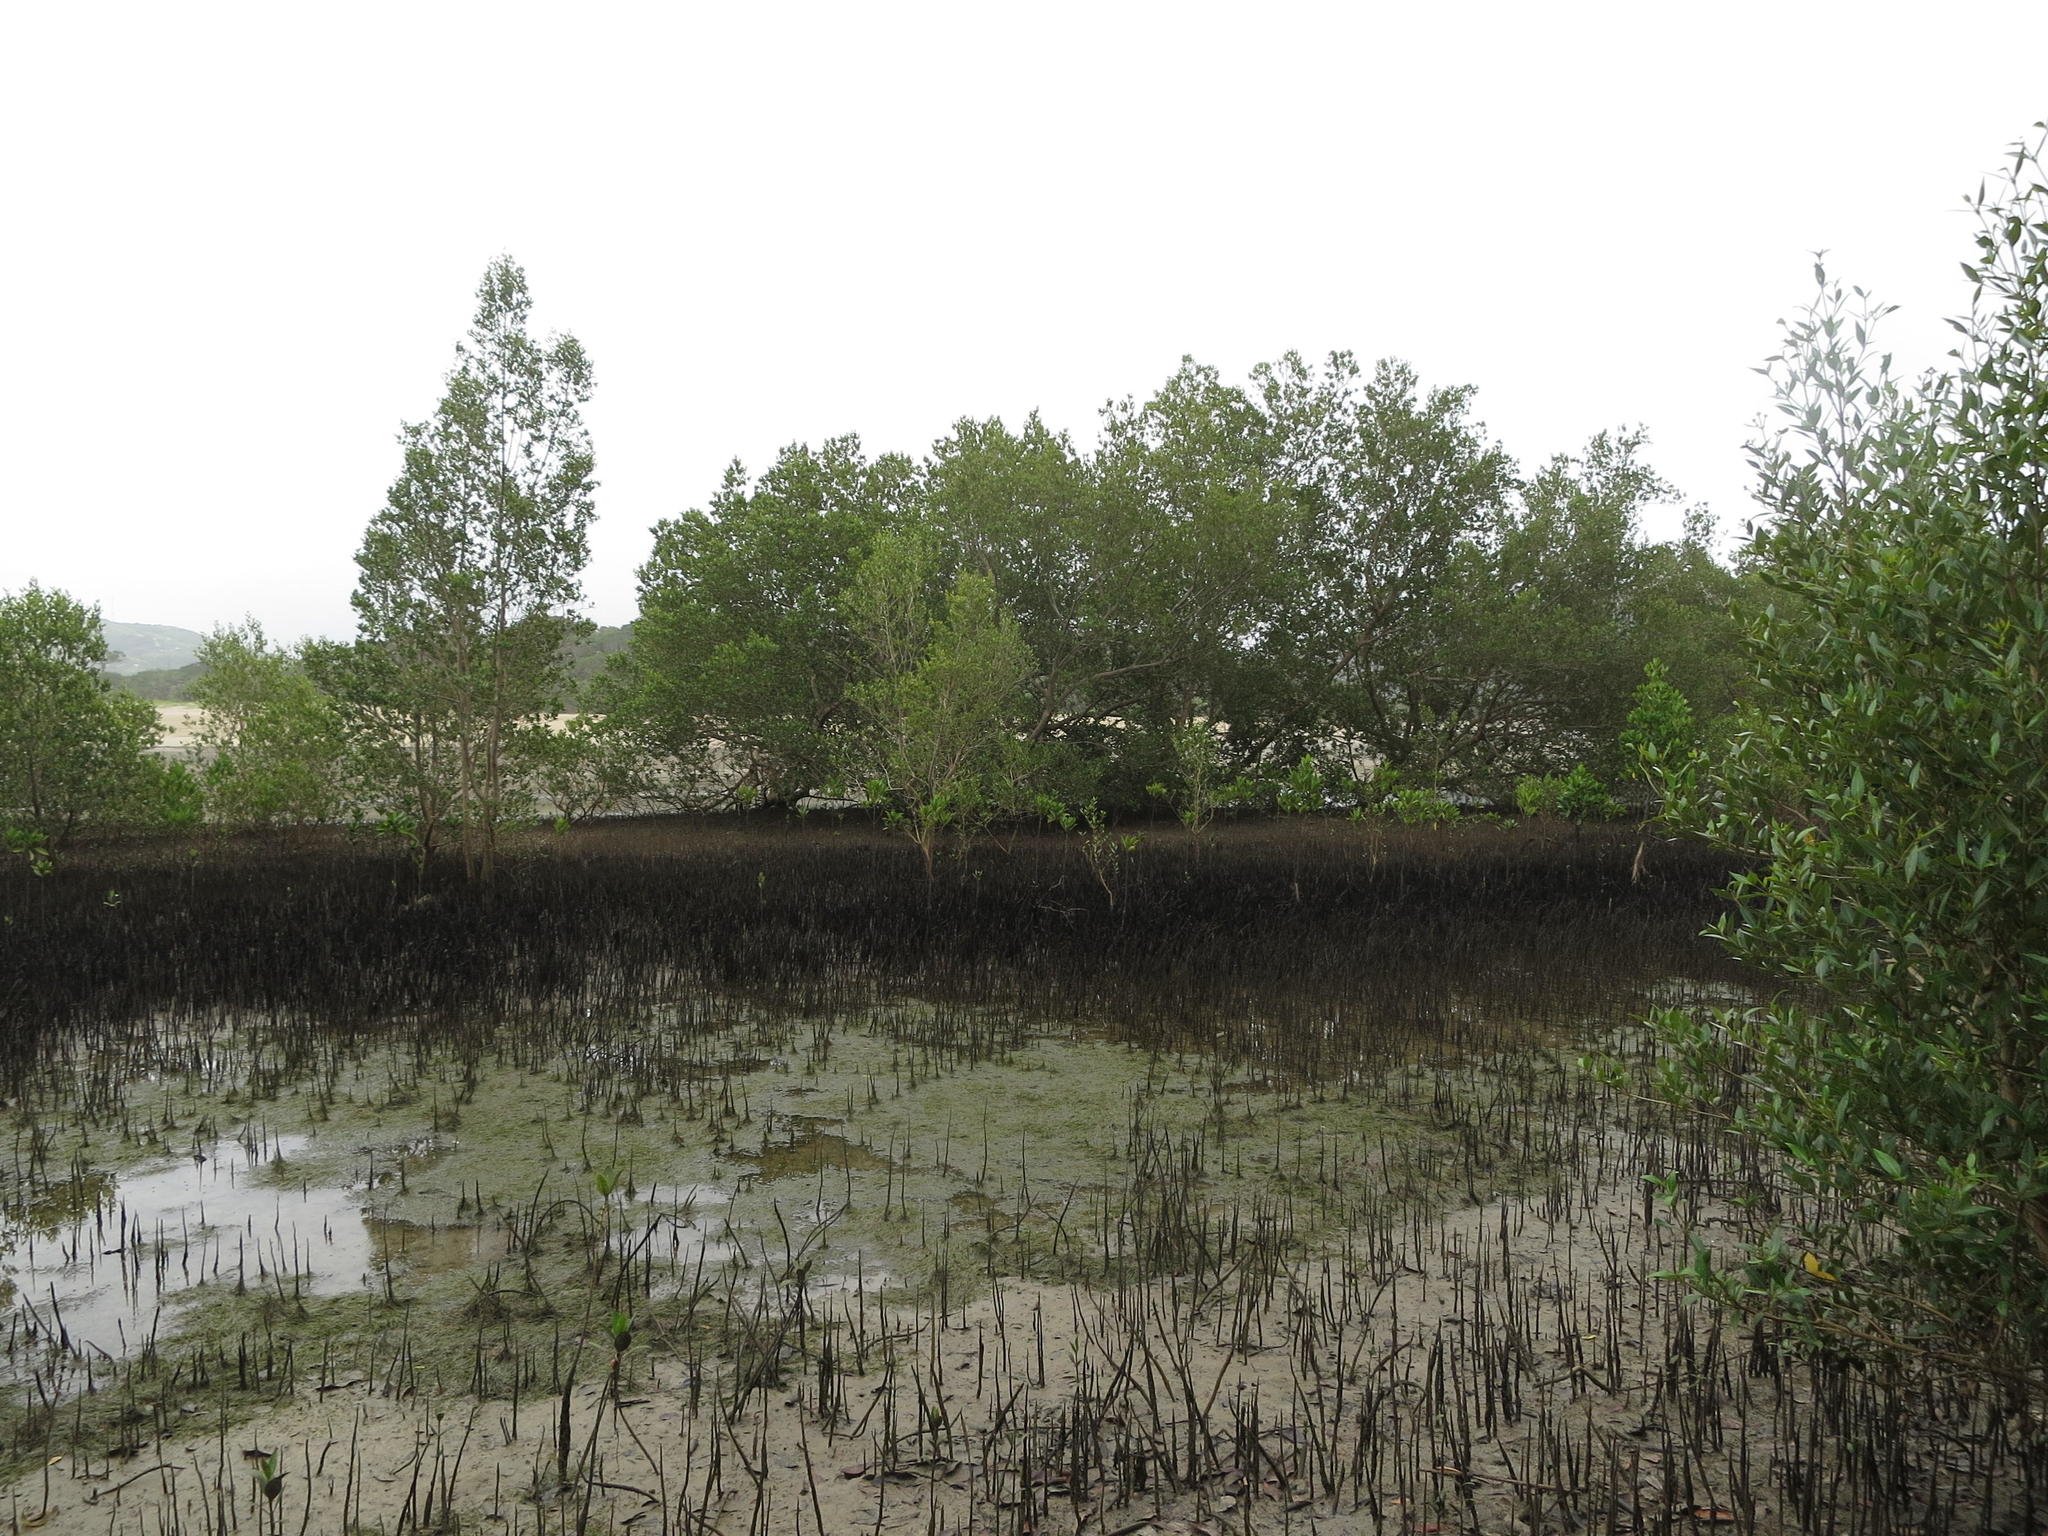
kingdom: Plantae
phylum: Tracheophyta
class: Magnoliopsida
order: Lamiales
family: Acanthaceae
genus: Avicennia
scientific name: Avicennia marina
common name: Gray mangrove
